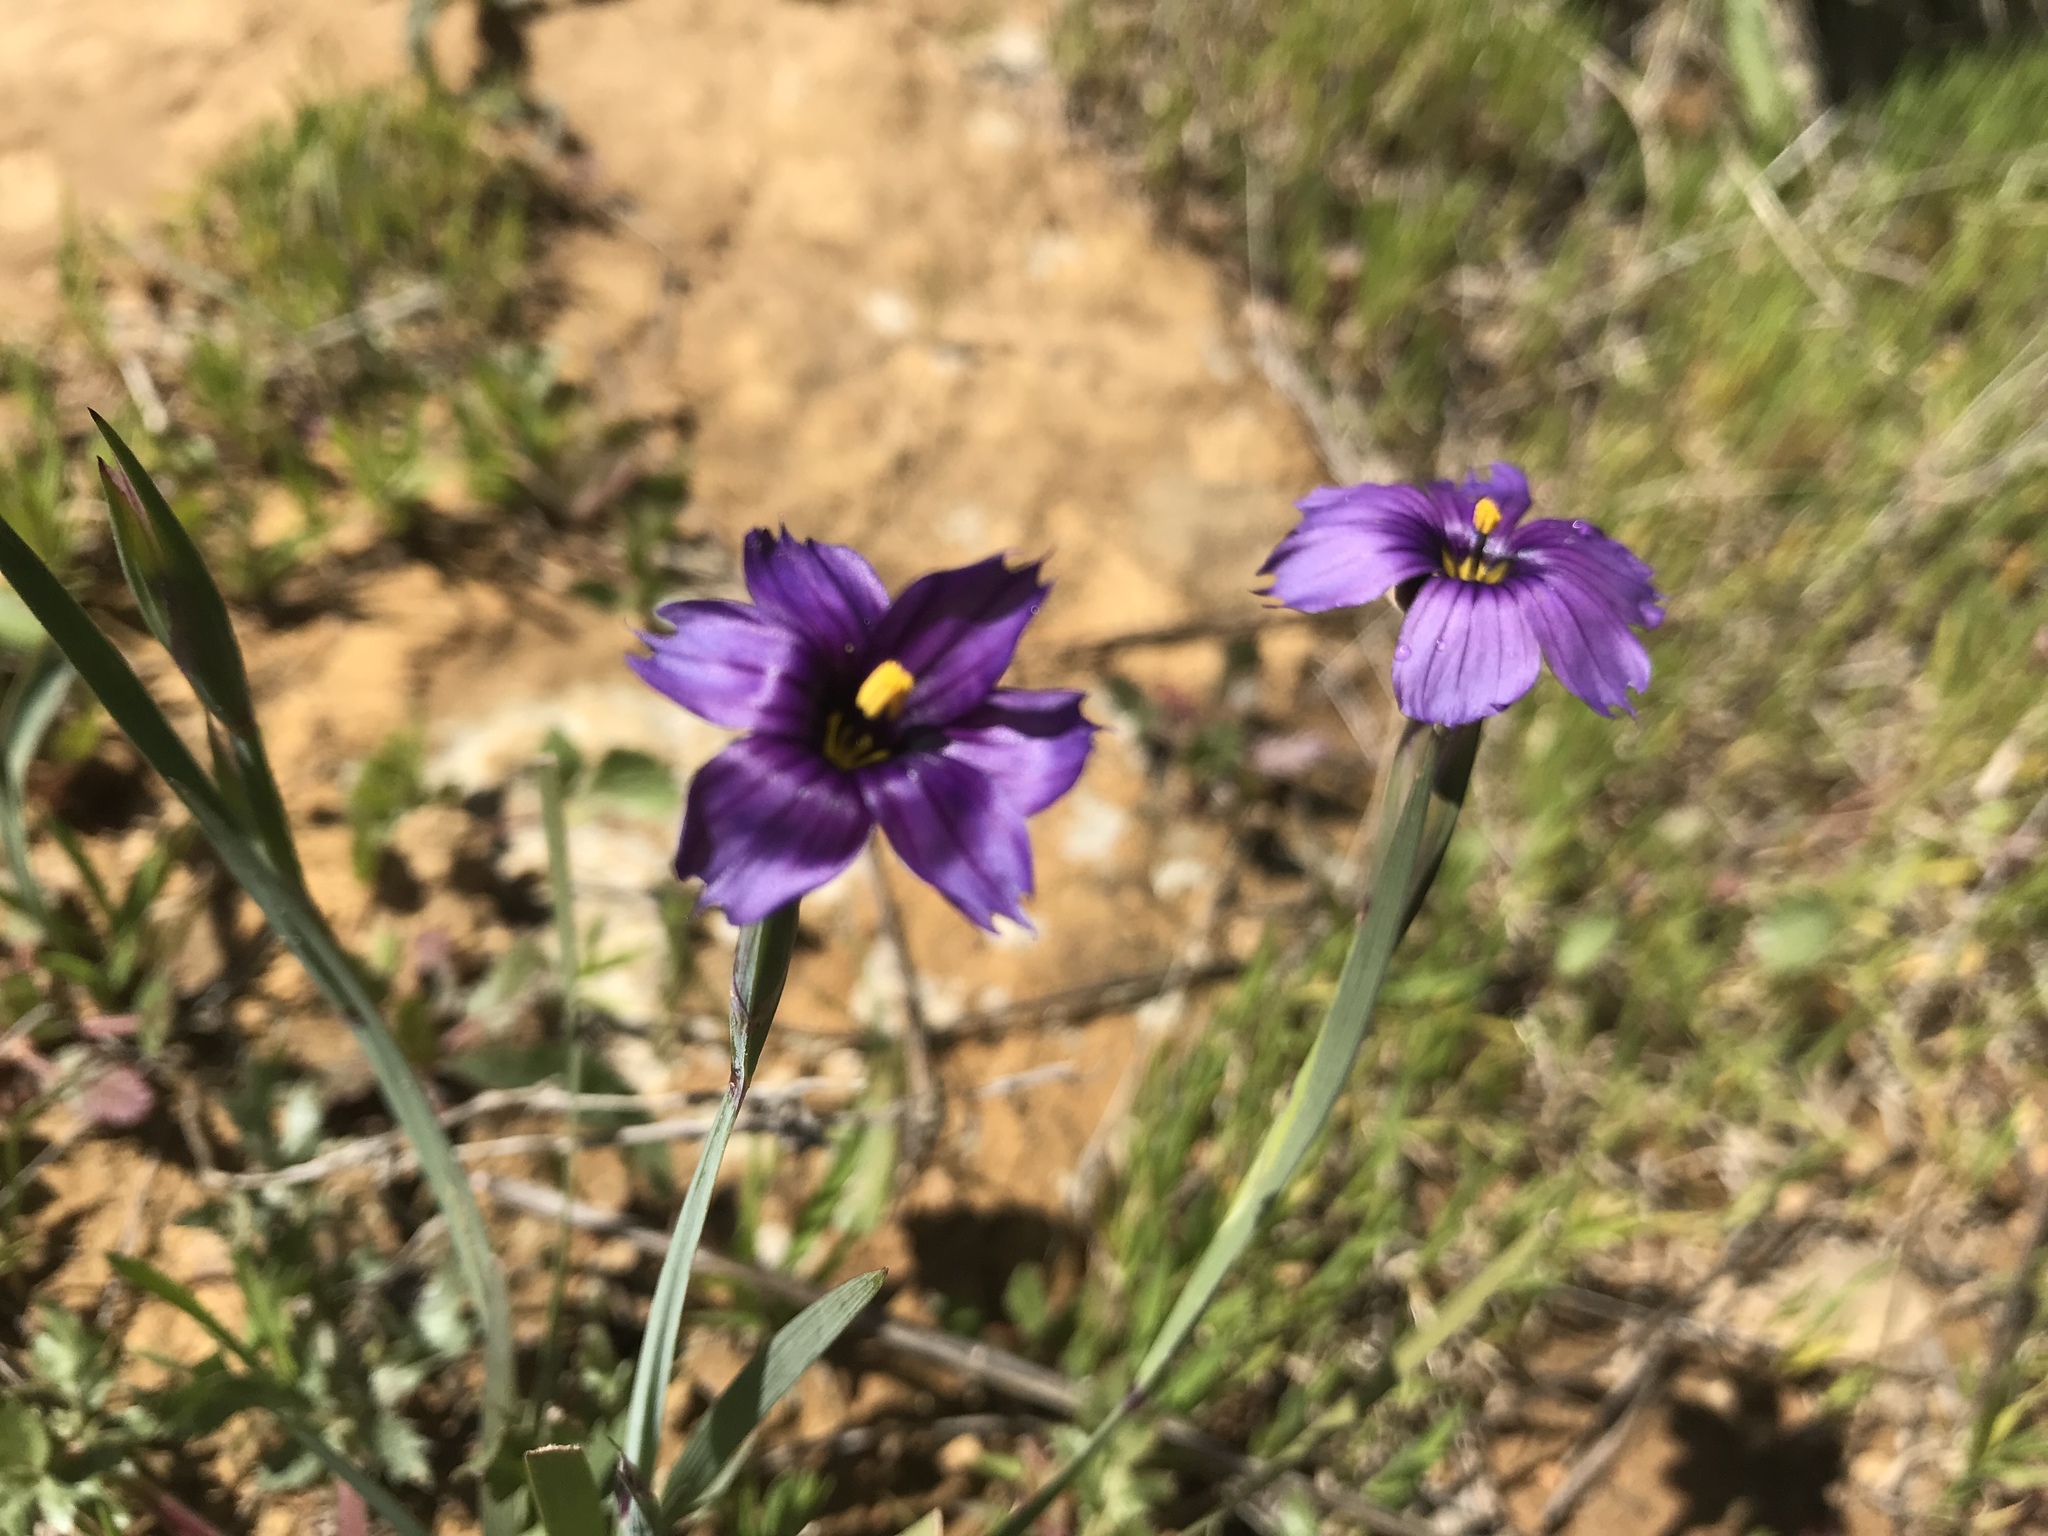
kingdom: Plantae
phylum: Tracheophyta
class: Liliopsida
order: Asparagales
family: Iridaceae
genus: Sisyrinchium
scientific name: Sisyrinchium bellum
